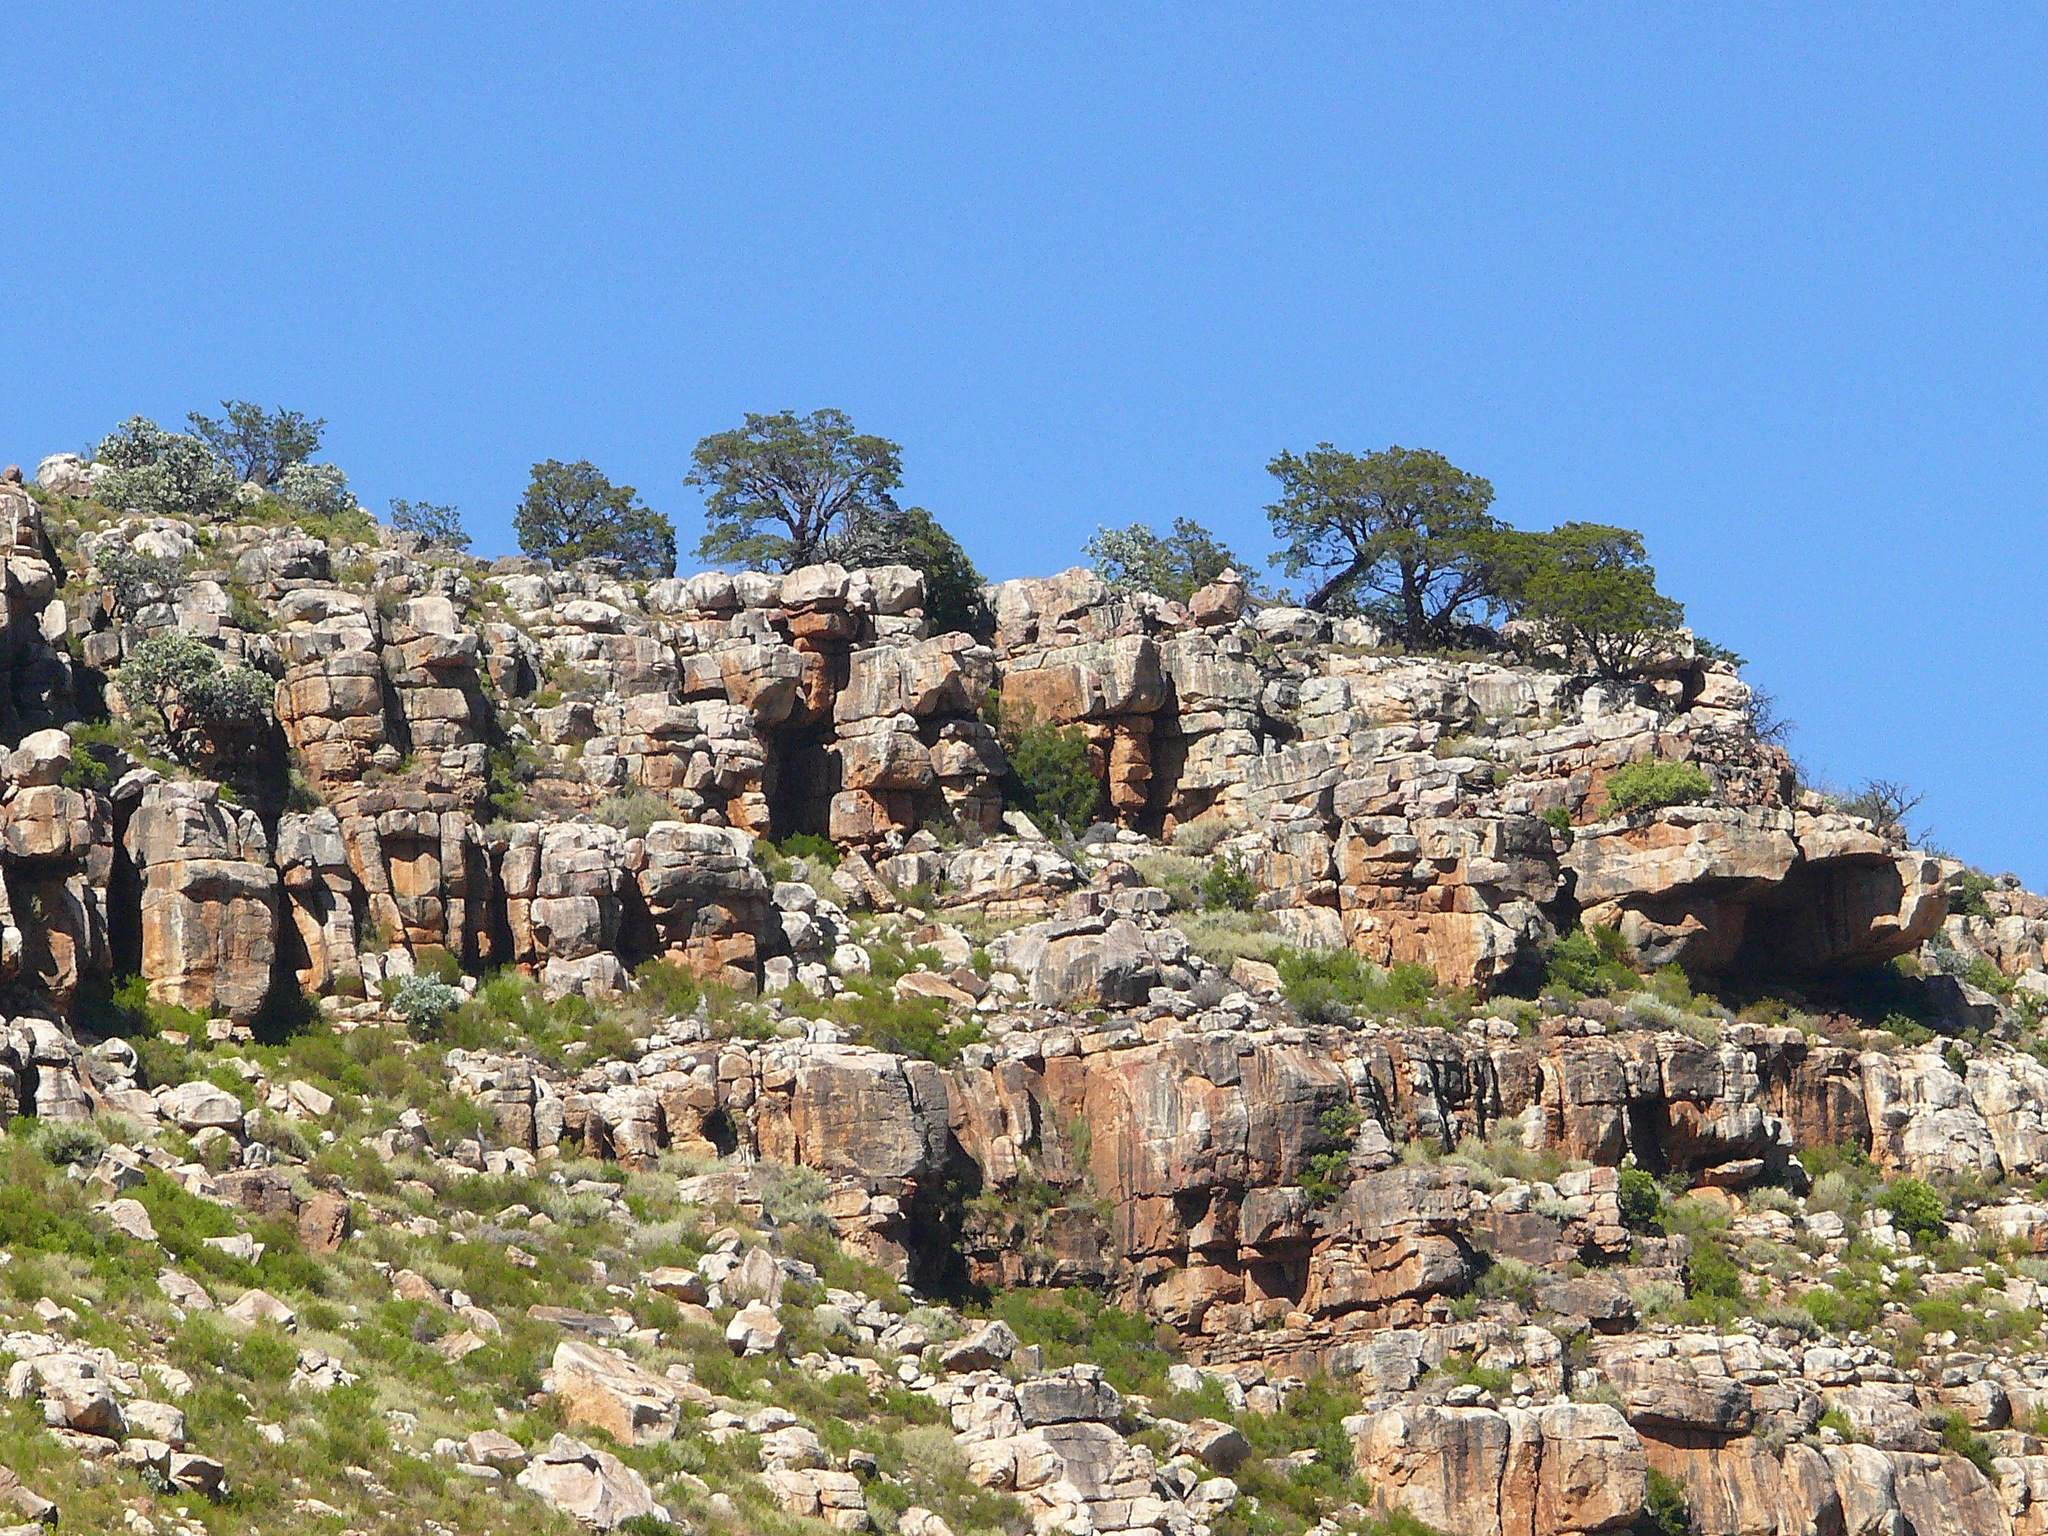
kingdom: Plantae
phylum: Tracheophyta
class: Pinopsida
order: Pinales
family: Cupressaceae
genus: Widdringtonia
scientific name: Widdringtonia nodiflora
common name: Cape cypress
